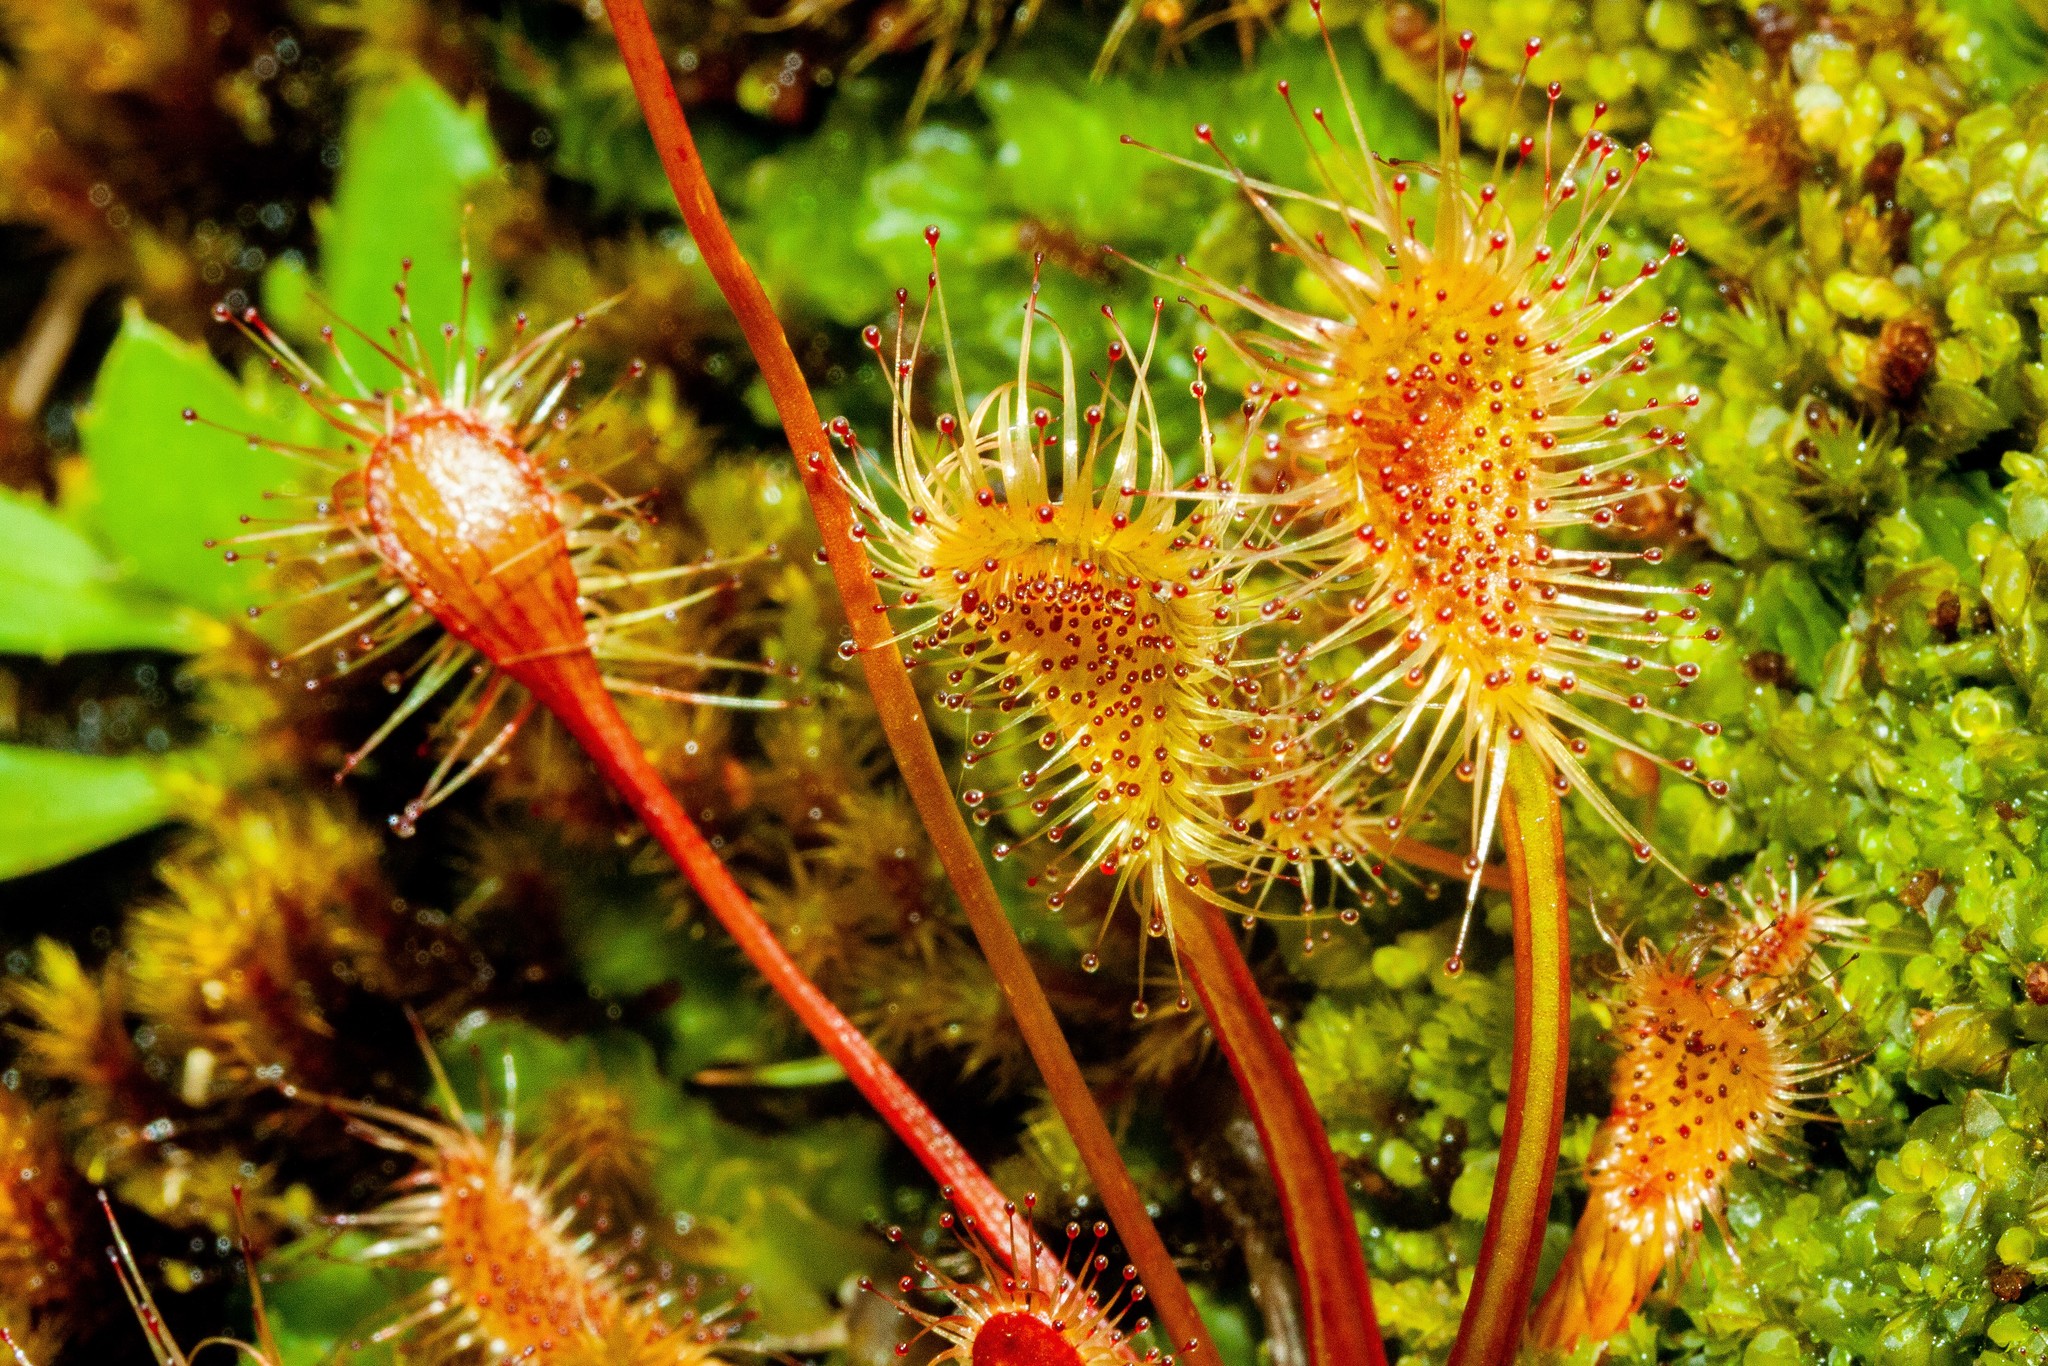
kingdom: Plantae
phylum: Tracheophyta
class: Magnoliopsida
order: Caryophyllales
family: Droseraceae
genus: Drosera
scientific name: Drosera stenopetala
